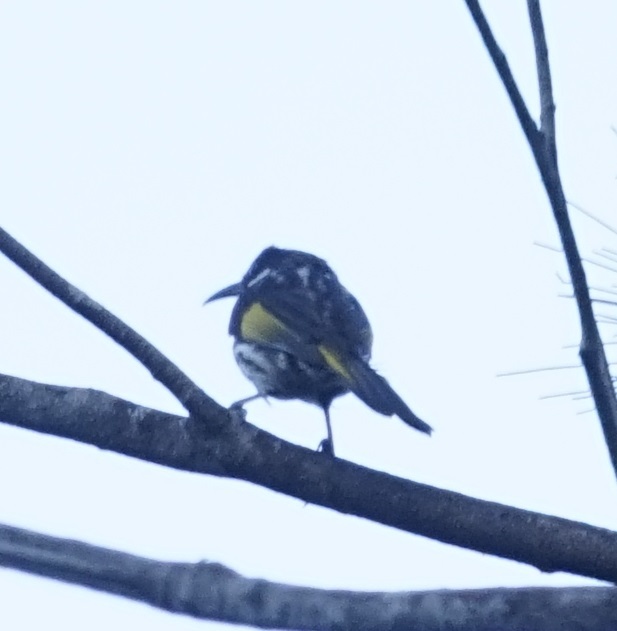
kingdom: Animalia
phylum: Chordata
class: Aves
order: Passeriformes
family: Meliphagidae
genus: Phylidonyris
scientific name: Phylidonyris niger
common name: White-cheeked honeyeater
